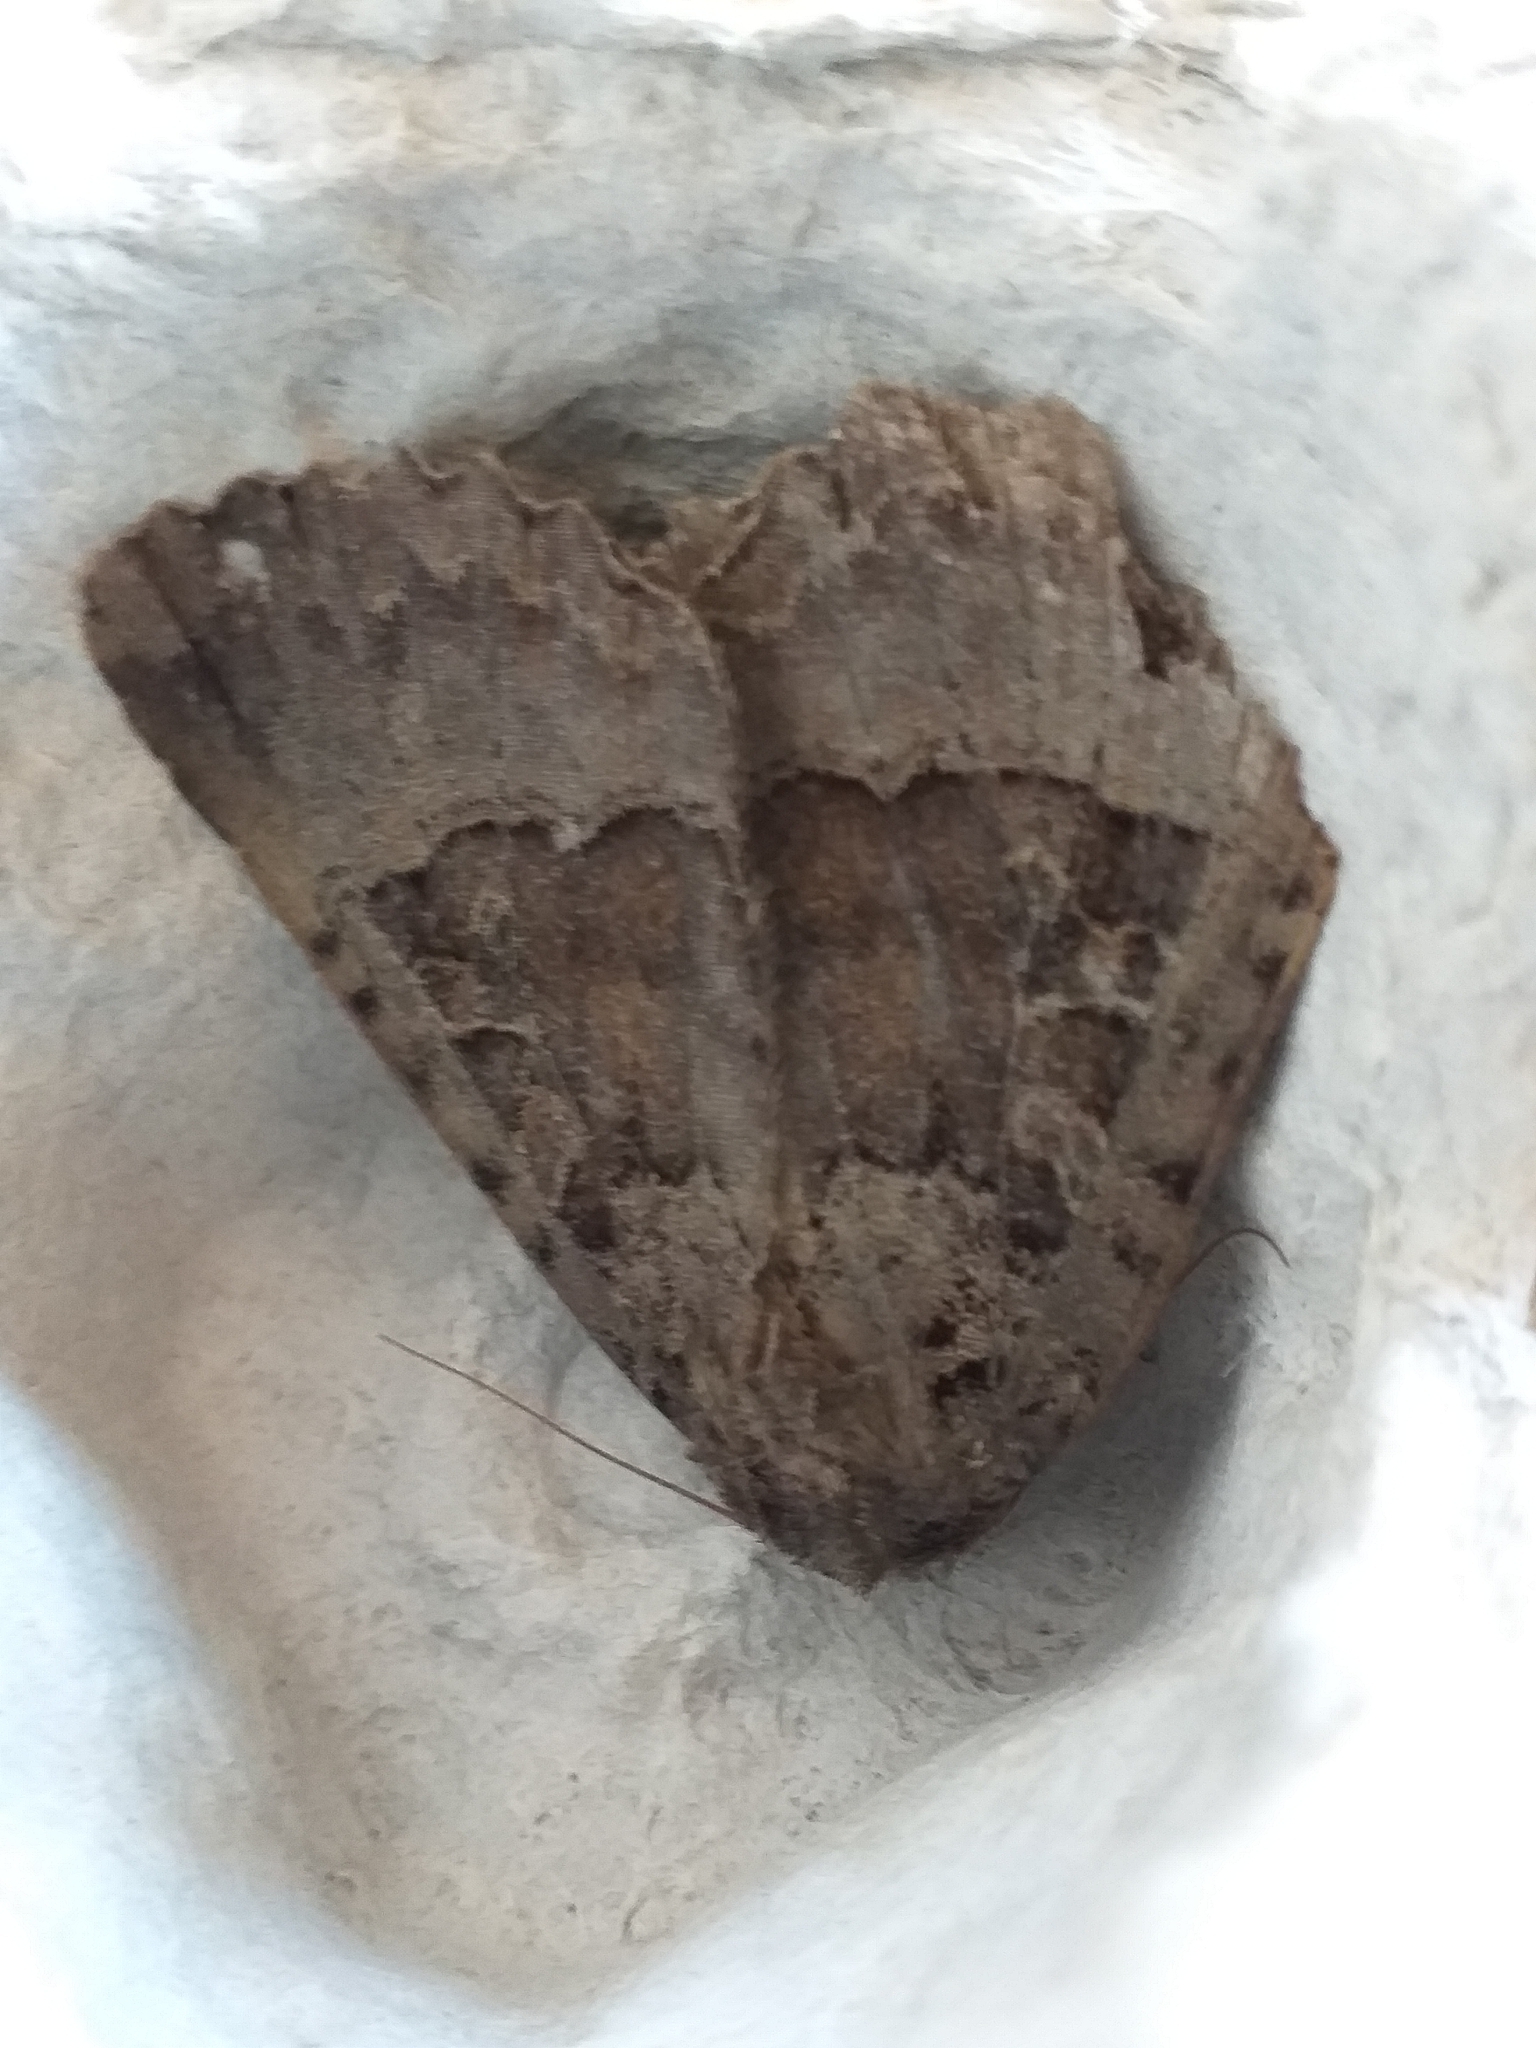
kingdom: Animalia
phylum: Arthropoda
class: Insecta
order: Lepidoptera
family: Noctuidae
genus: Mormo
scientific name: Mormo maura
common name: Old lady
